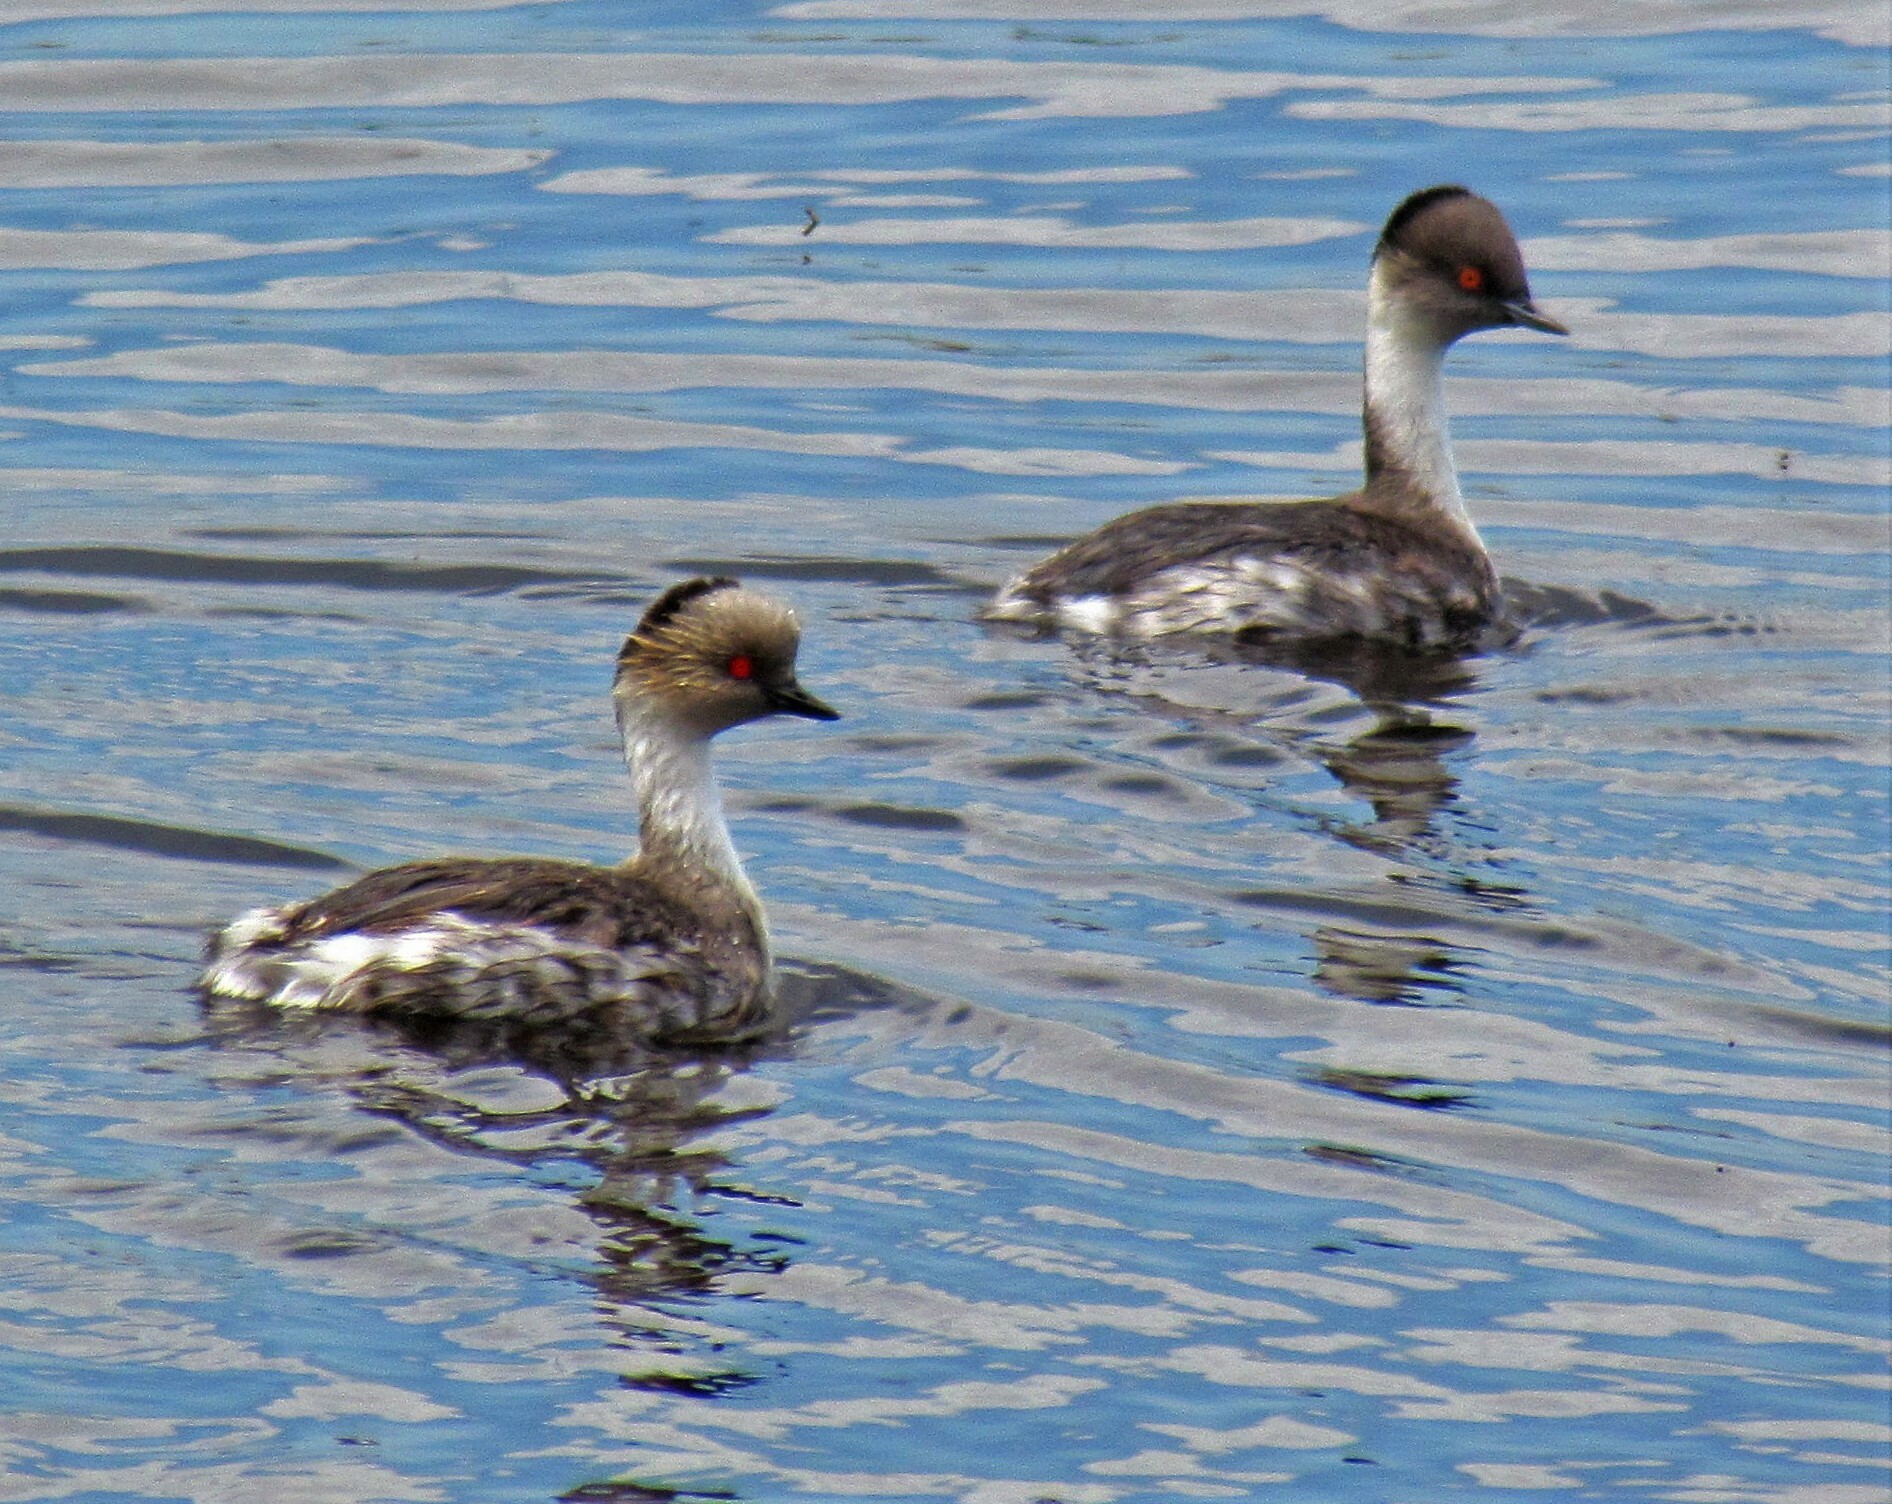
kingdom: Animalia
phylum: Chordata
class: Aves
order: Podicipediformes
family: Podicipedidae
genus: Podiceps
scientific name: Podiceps occipitalis
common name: Silvery grebe
